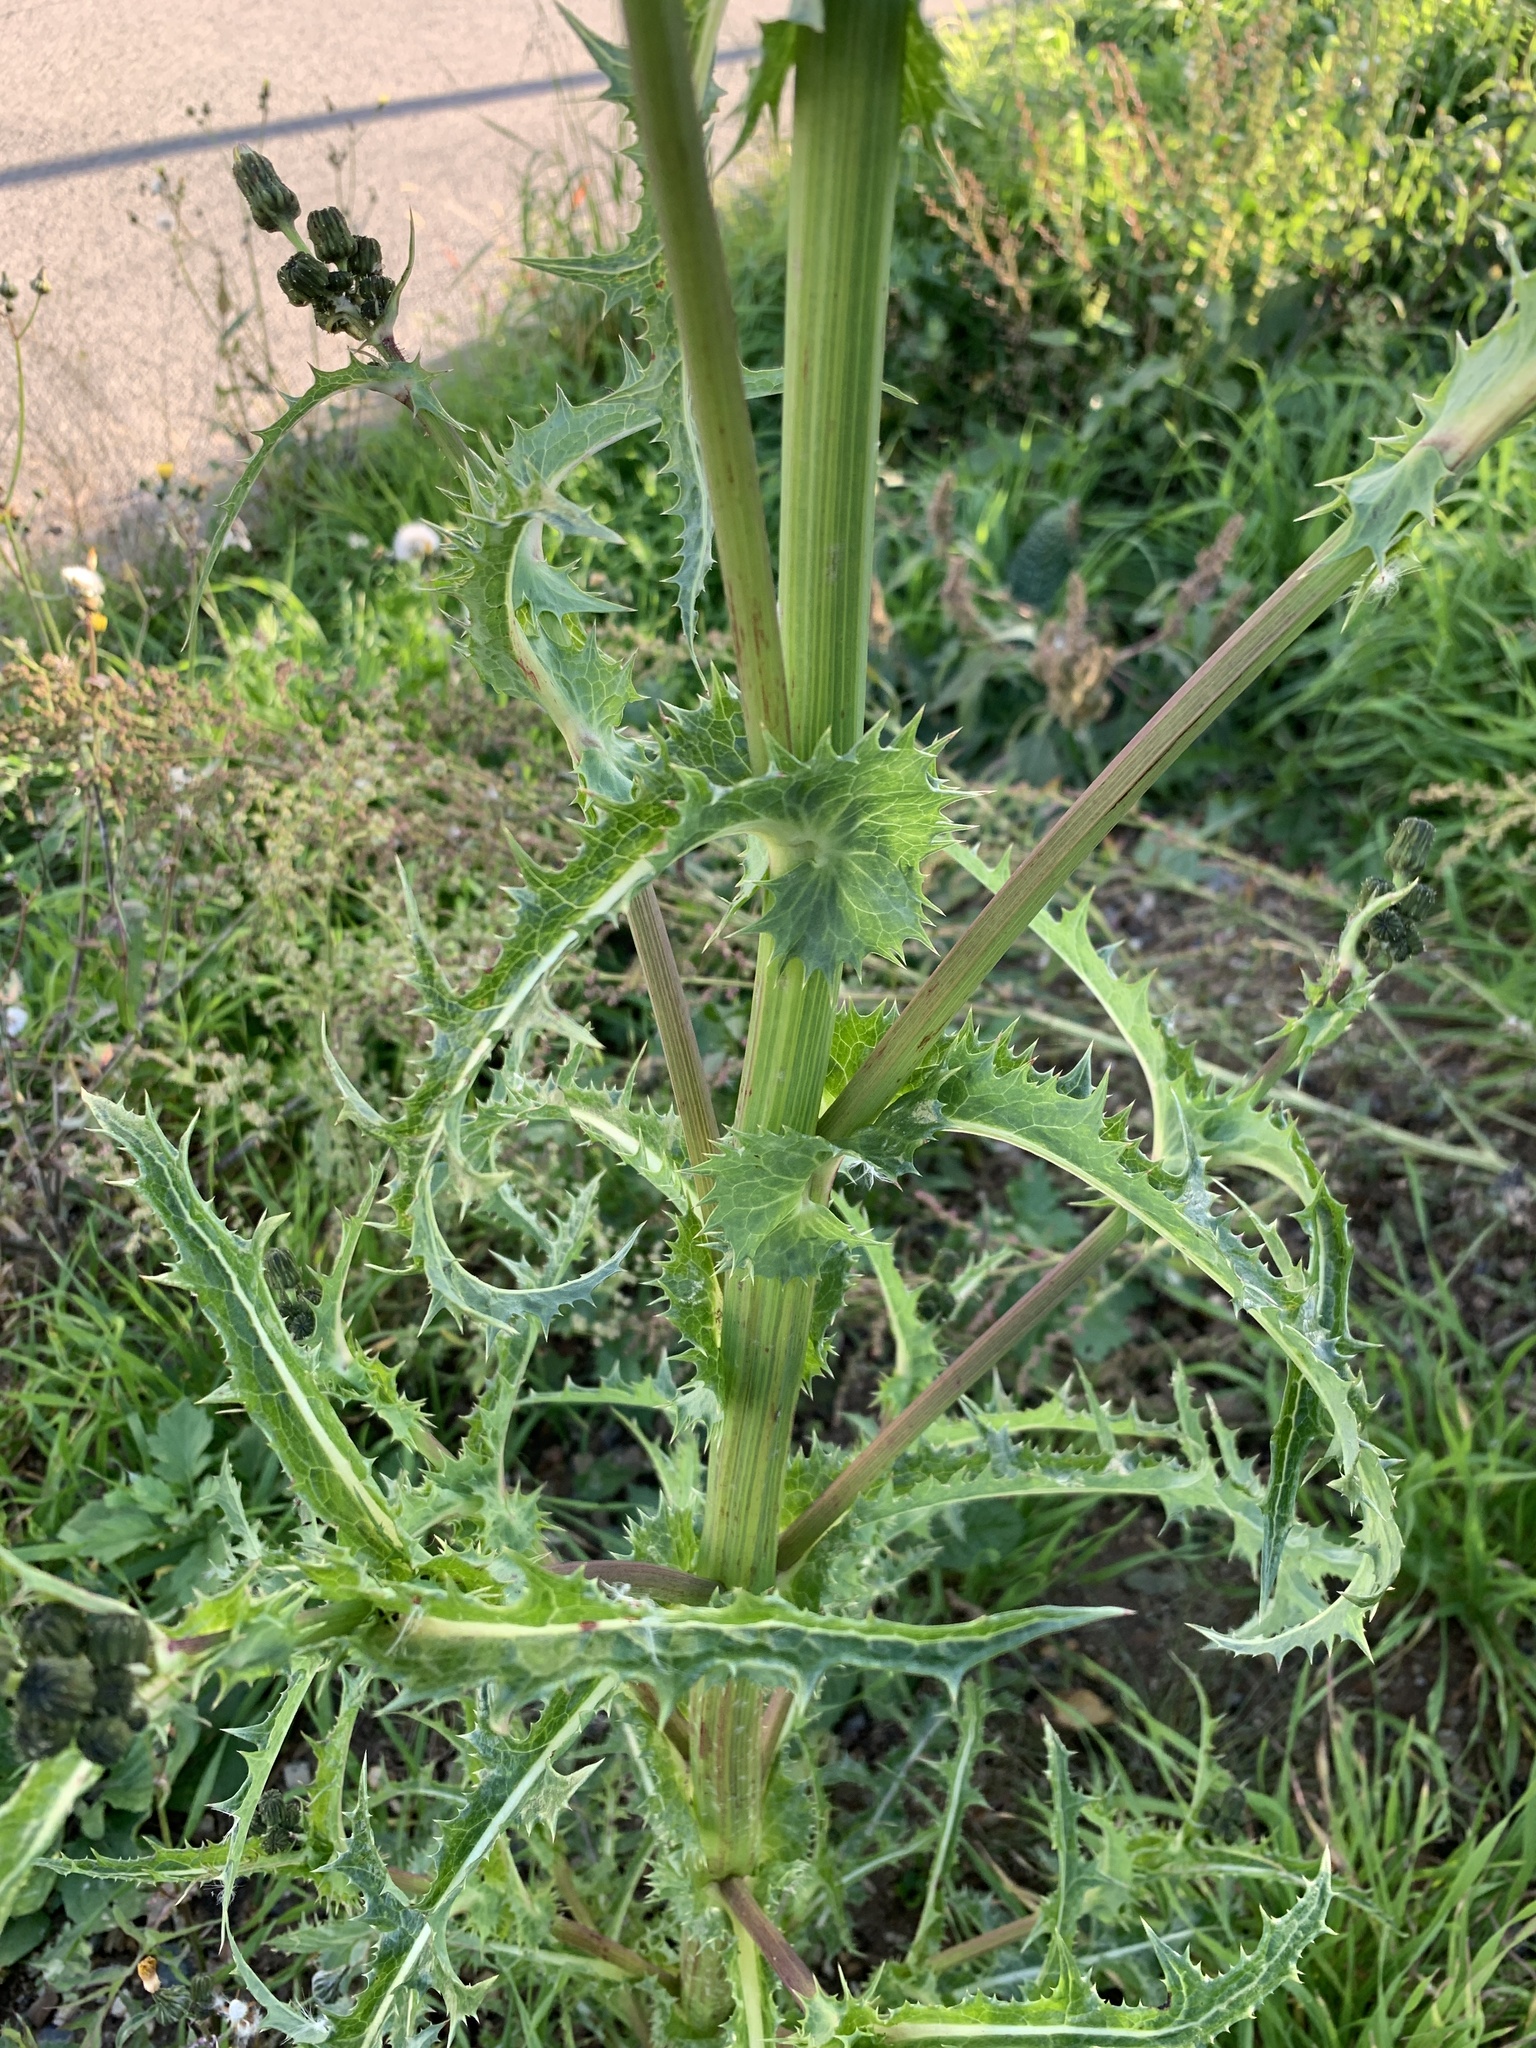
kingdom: Plantae
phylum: Tracheophyta
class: Magnoliopsida
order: Asterales
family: Asteraceae
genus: Sonchus
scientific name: Sonchus asper
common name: Prickly sow-thistle
